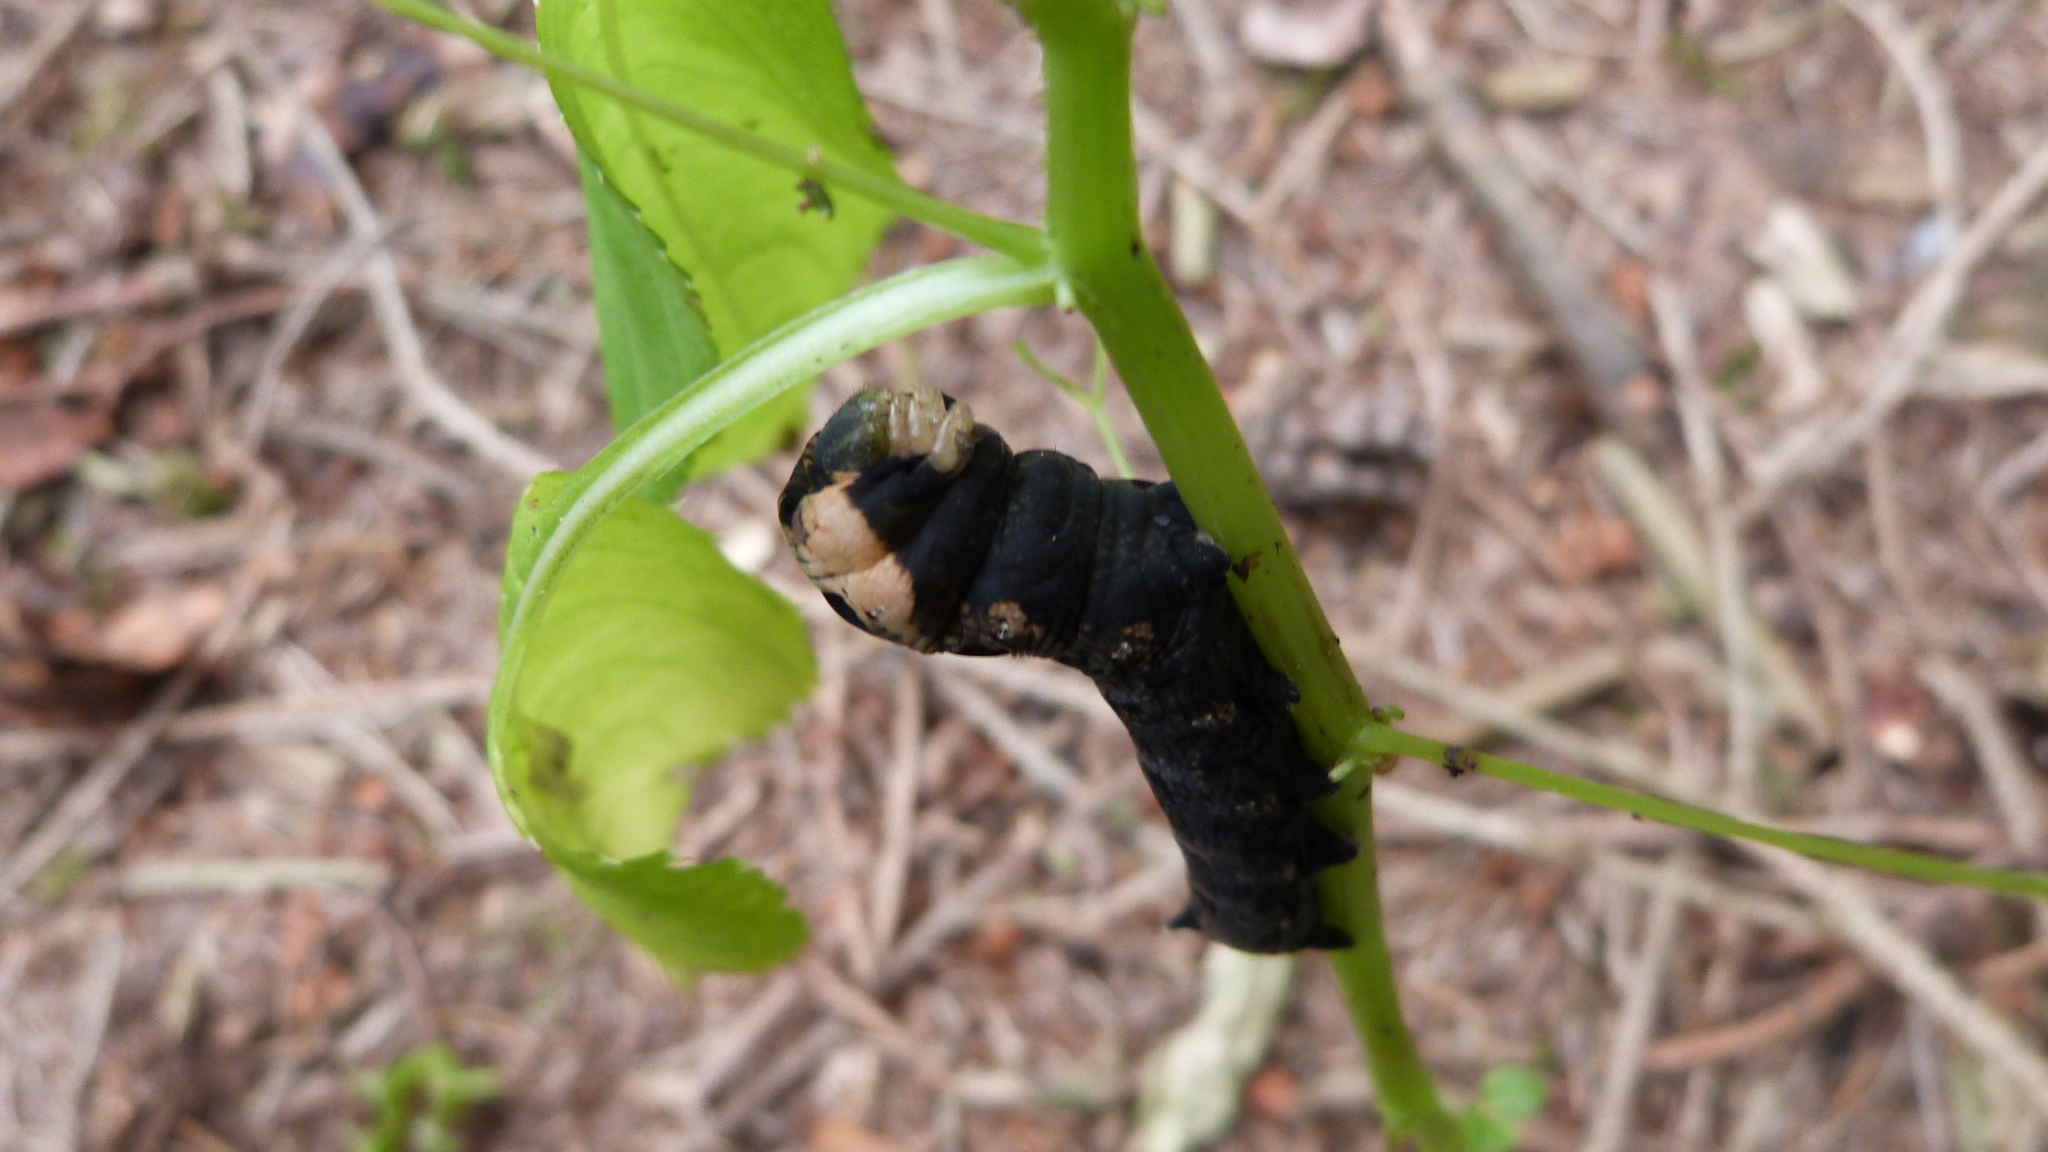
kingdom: Animalia
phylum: Arthropoda
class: Insecta
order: Lepidoptera
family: Sphingidae
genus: Deilephila
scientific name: Deilephila elpenor
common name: Elephant hawk-moth
